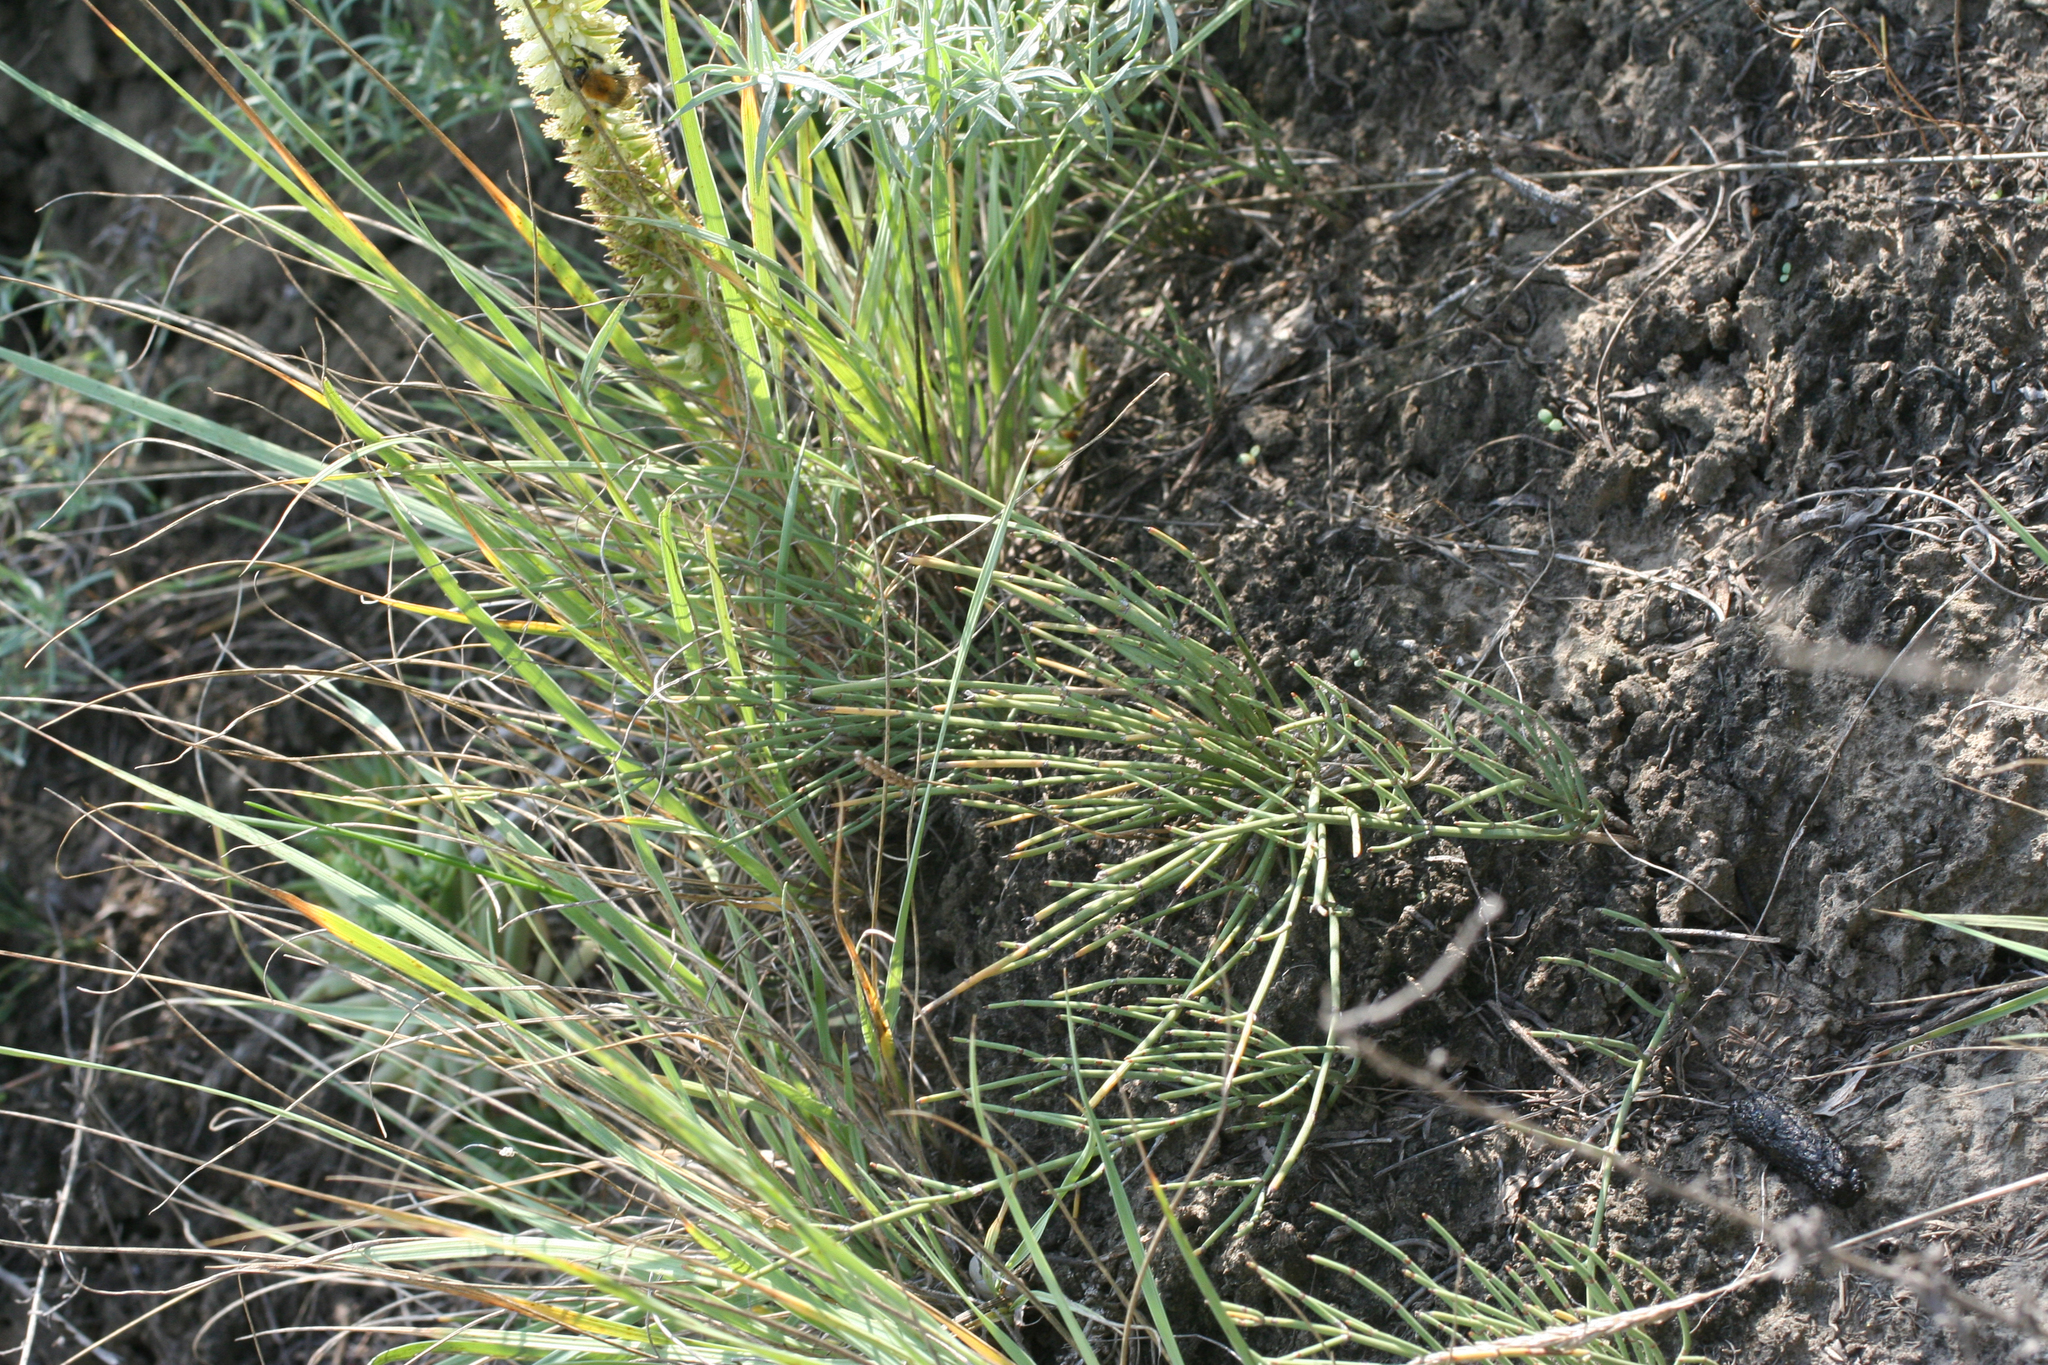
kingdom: Plantae
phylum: Tracheophyta
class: Gnetopsida
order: Ephedrales
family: Ephedraceae
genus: Ephedra
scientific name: Ephedra distachya
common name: Sea grape
